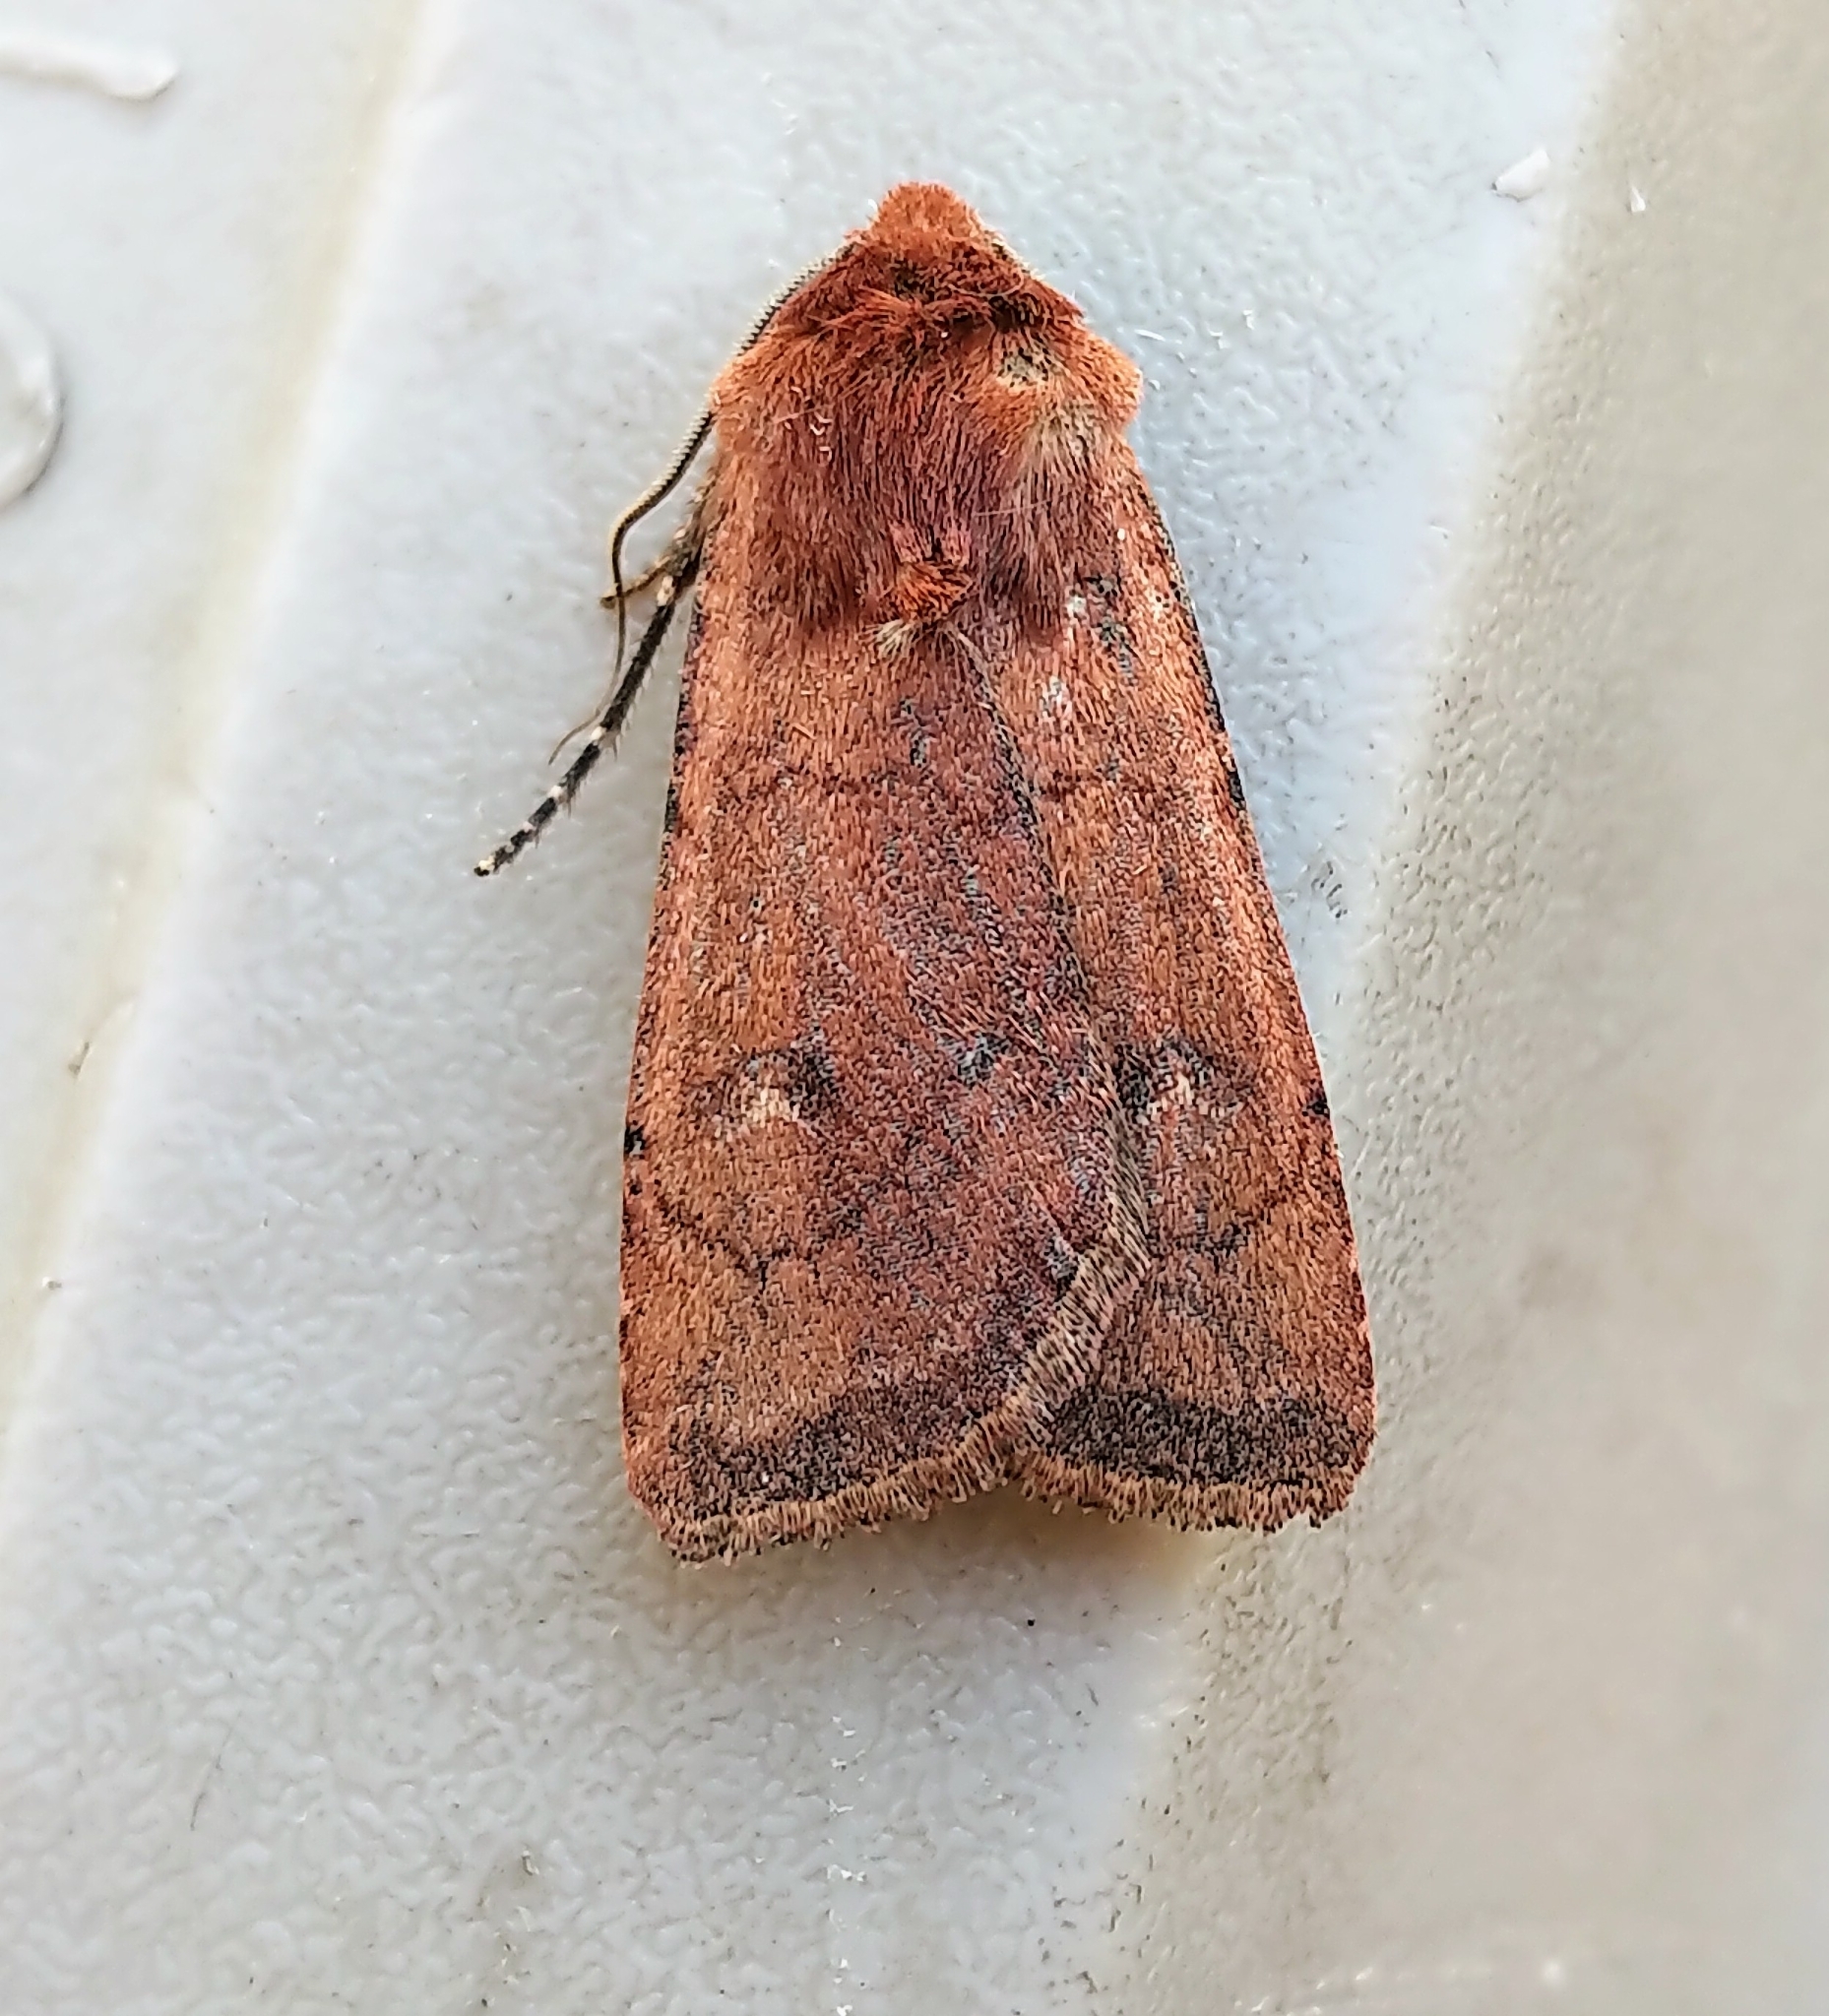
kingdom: Animalia
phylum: Arthropoda
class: Insecta
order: Lepidoptera
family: Noctuidae
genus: Euxoa
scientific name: Euxoa mimallonis
